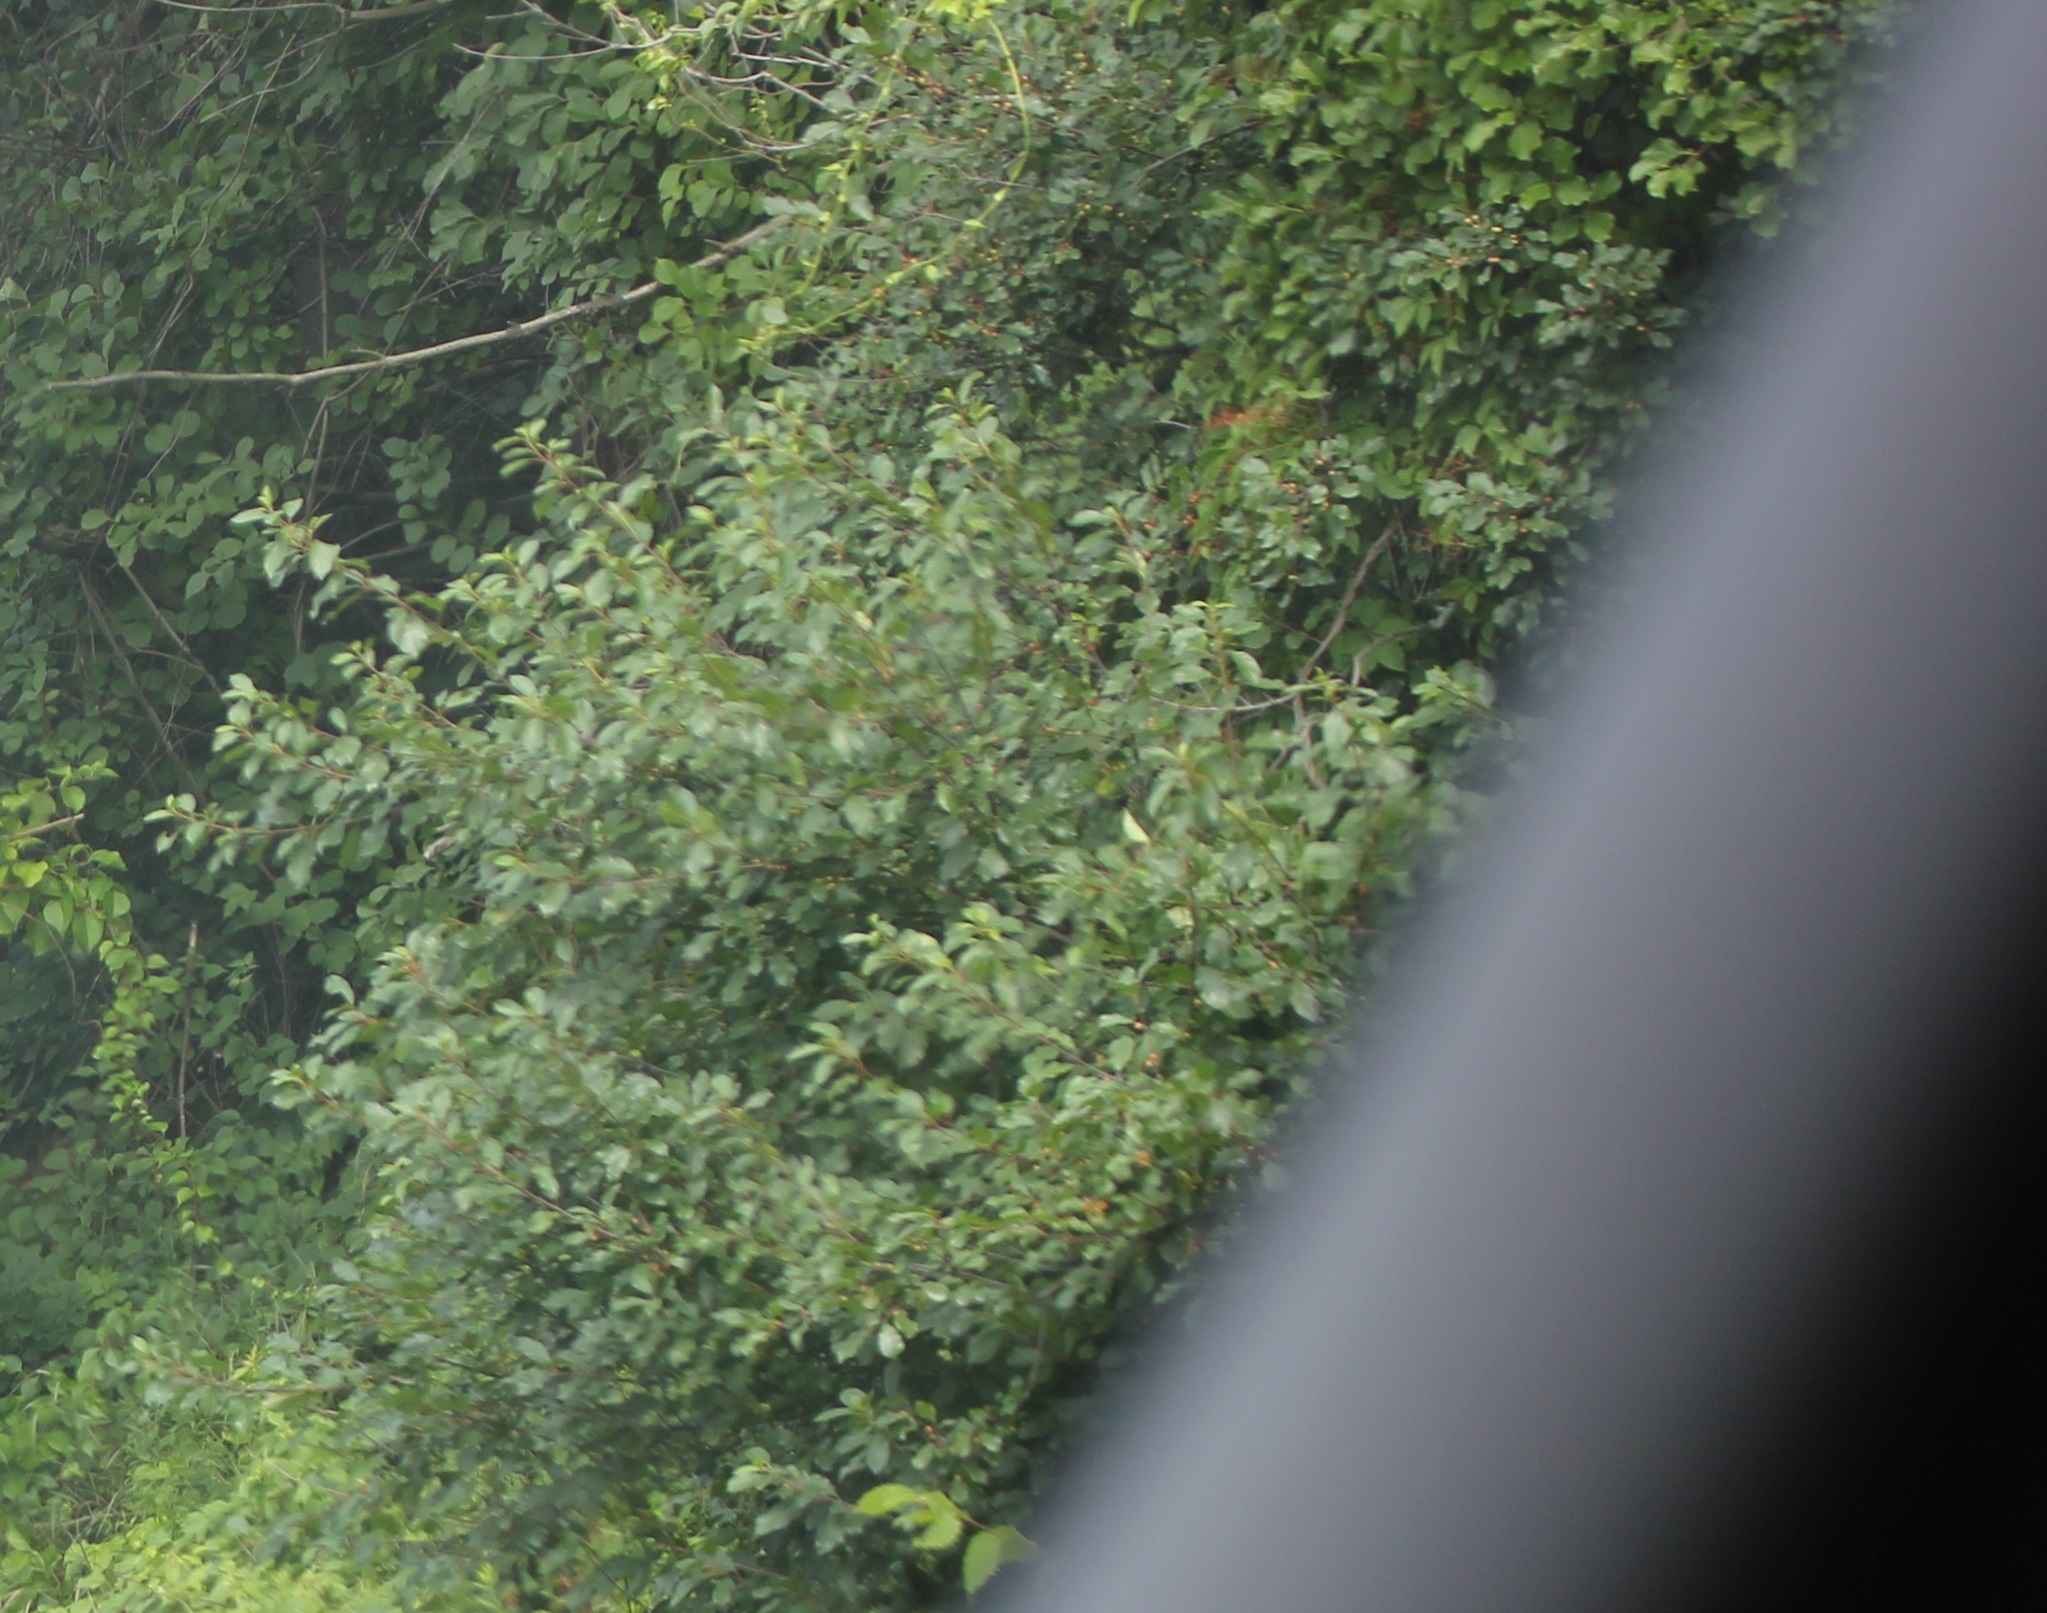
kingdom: Plantae
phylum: Tracheophyta
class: Magnoliopsida
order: Rosales
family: Rhamnaceae
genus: Frangula
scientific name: Frangula alnus
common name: Alder buckthorn
